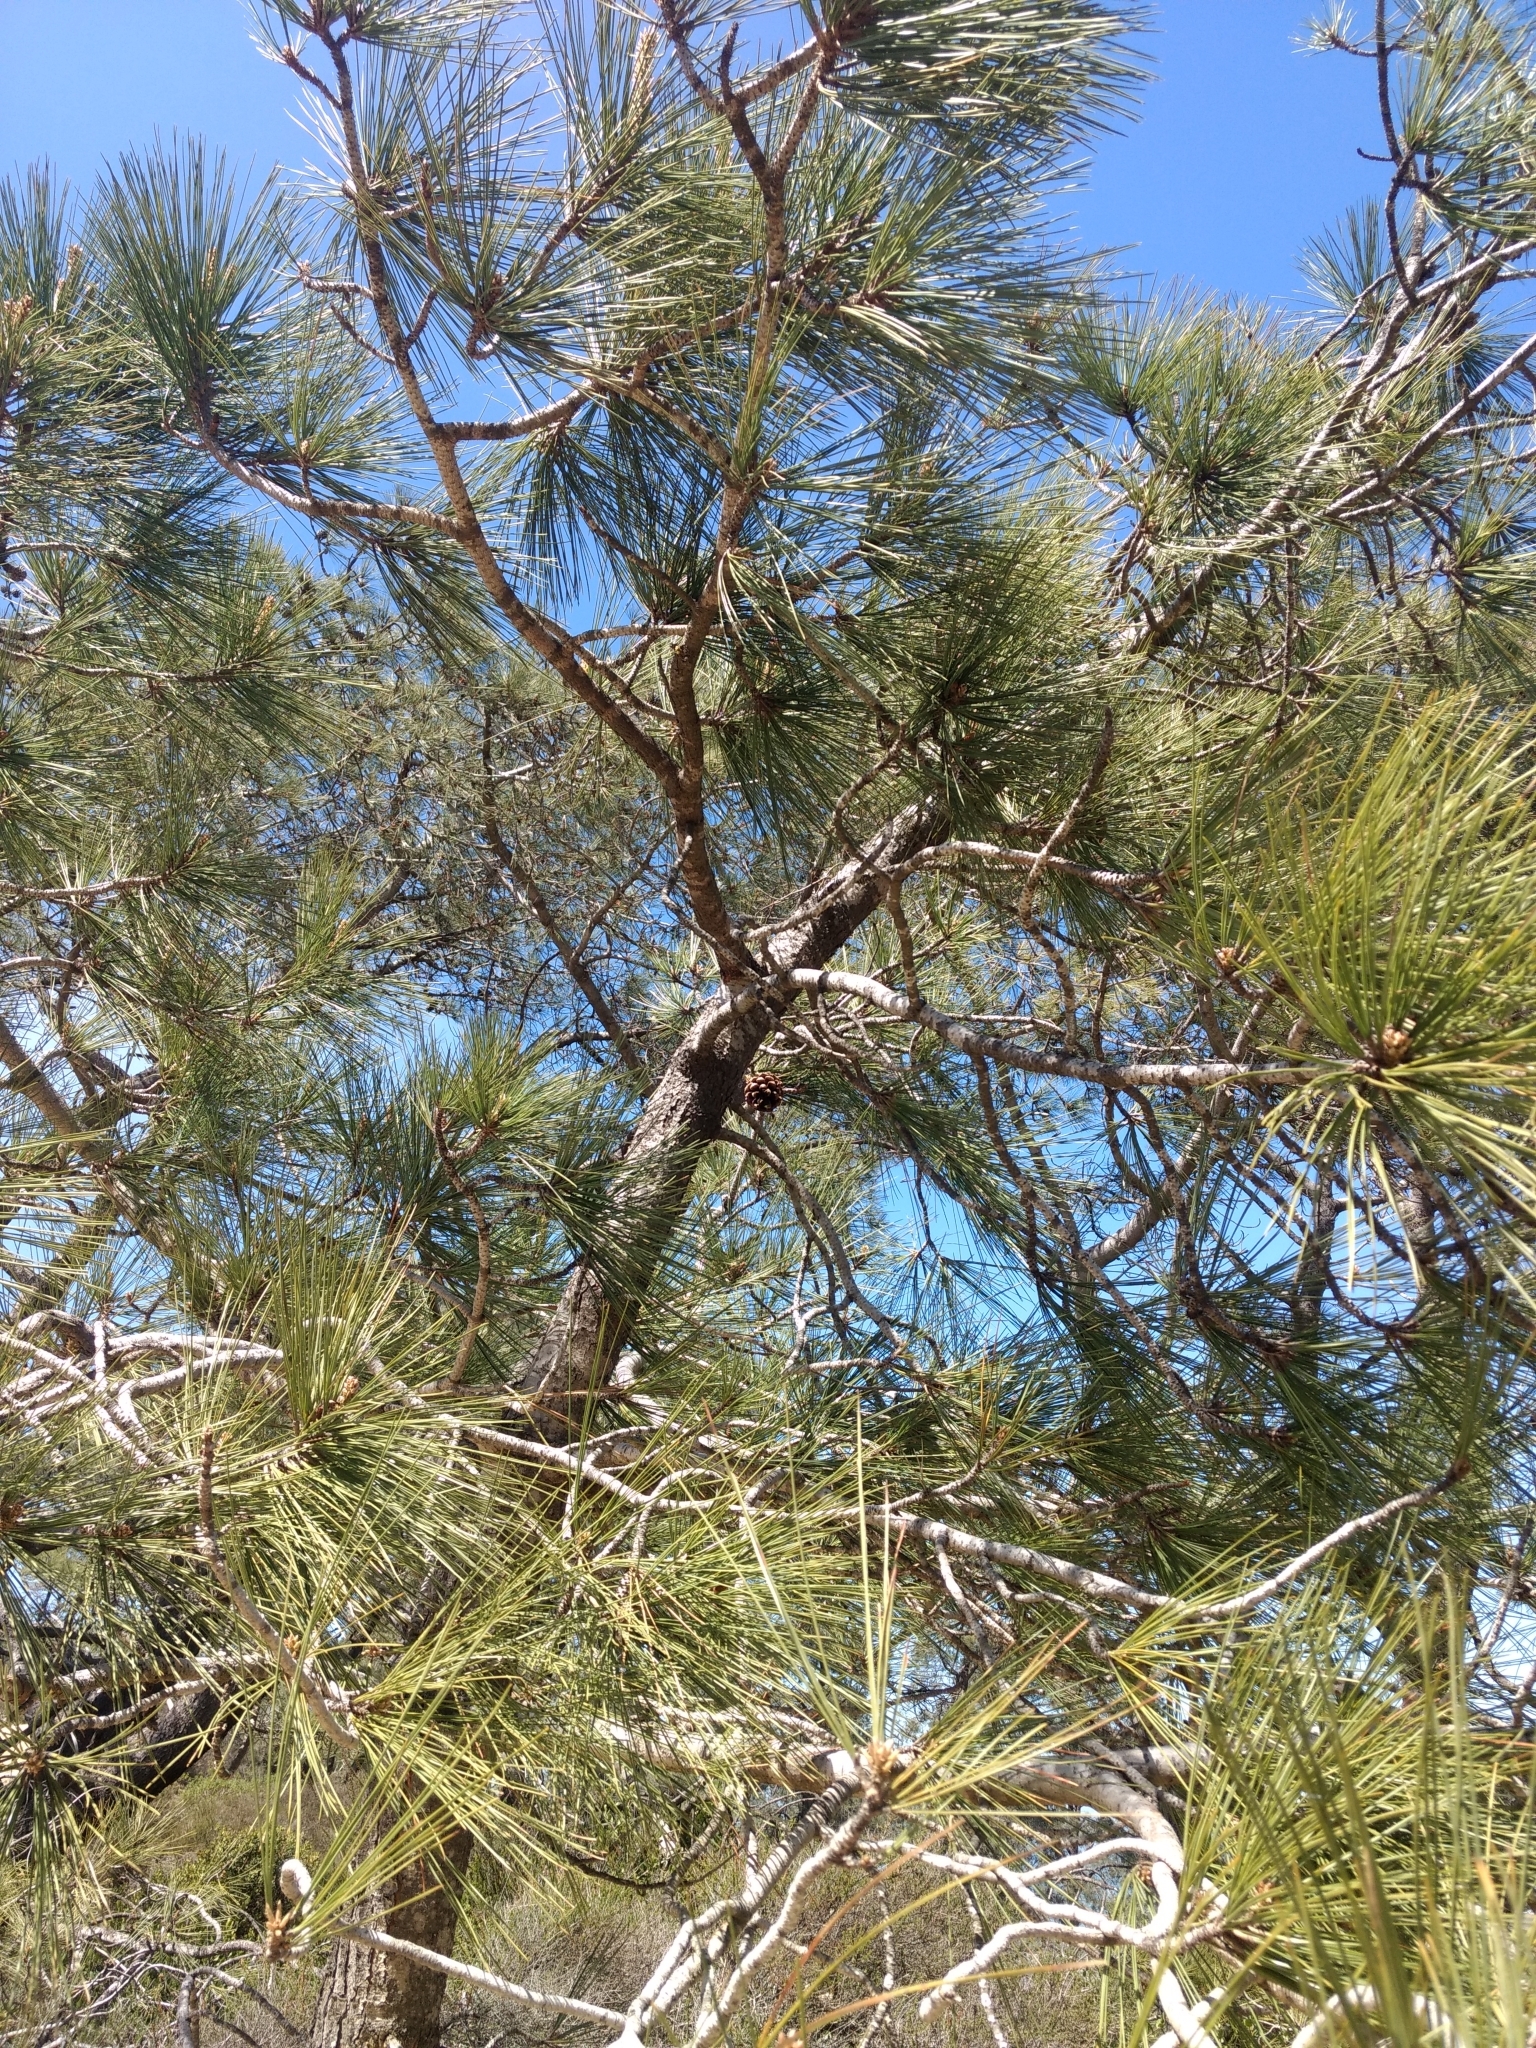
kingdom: Plantae
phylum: Tracheophyta
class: Pinopsida
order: Pinales
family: Pinaceae
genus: Pinus
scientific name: Pinus torreyana
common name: Torrey pine
